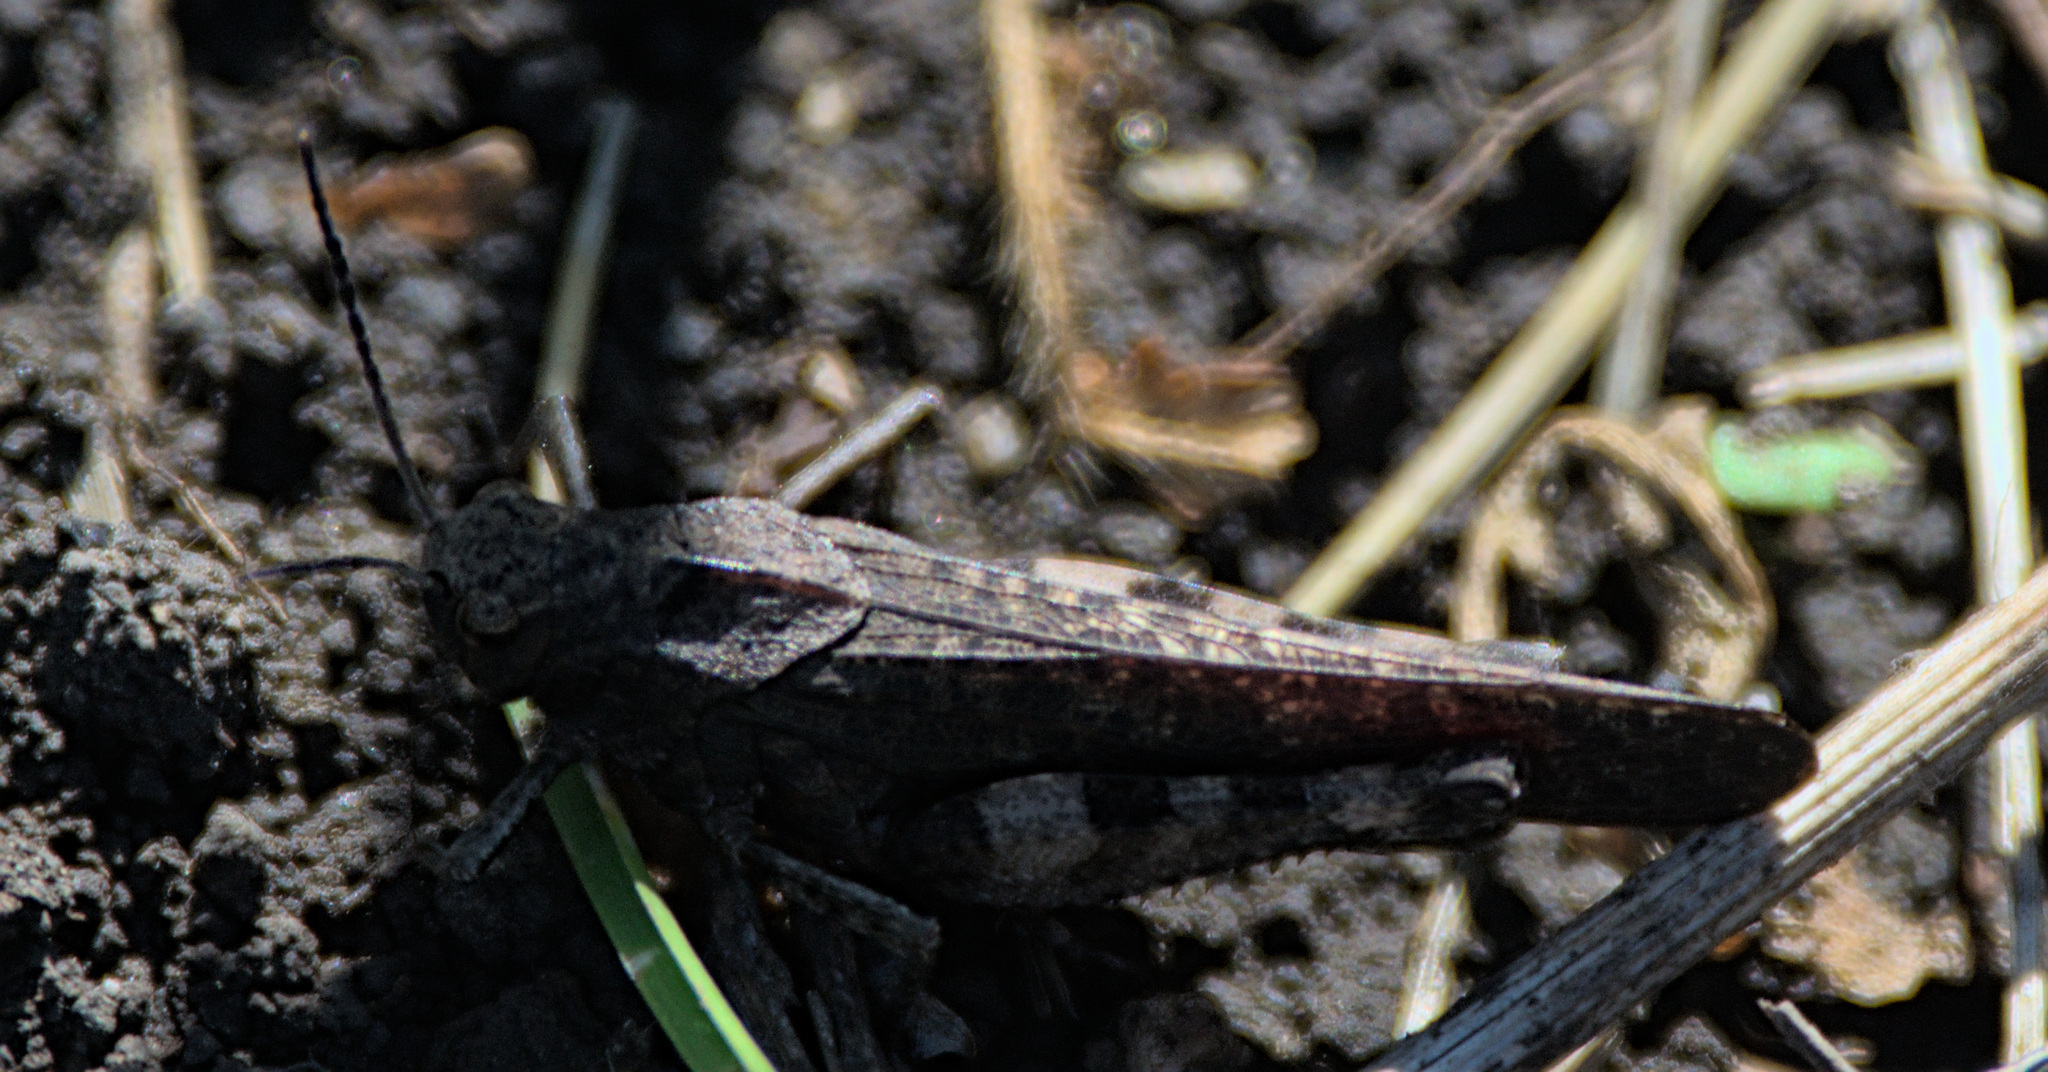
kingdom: Animalia
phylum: Arthropoda
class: Insecta
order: Orthoptera
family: Acrididae
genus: Psophus
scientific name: Psophus stridulus
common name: Rattle grasshopper
